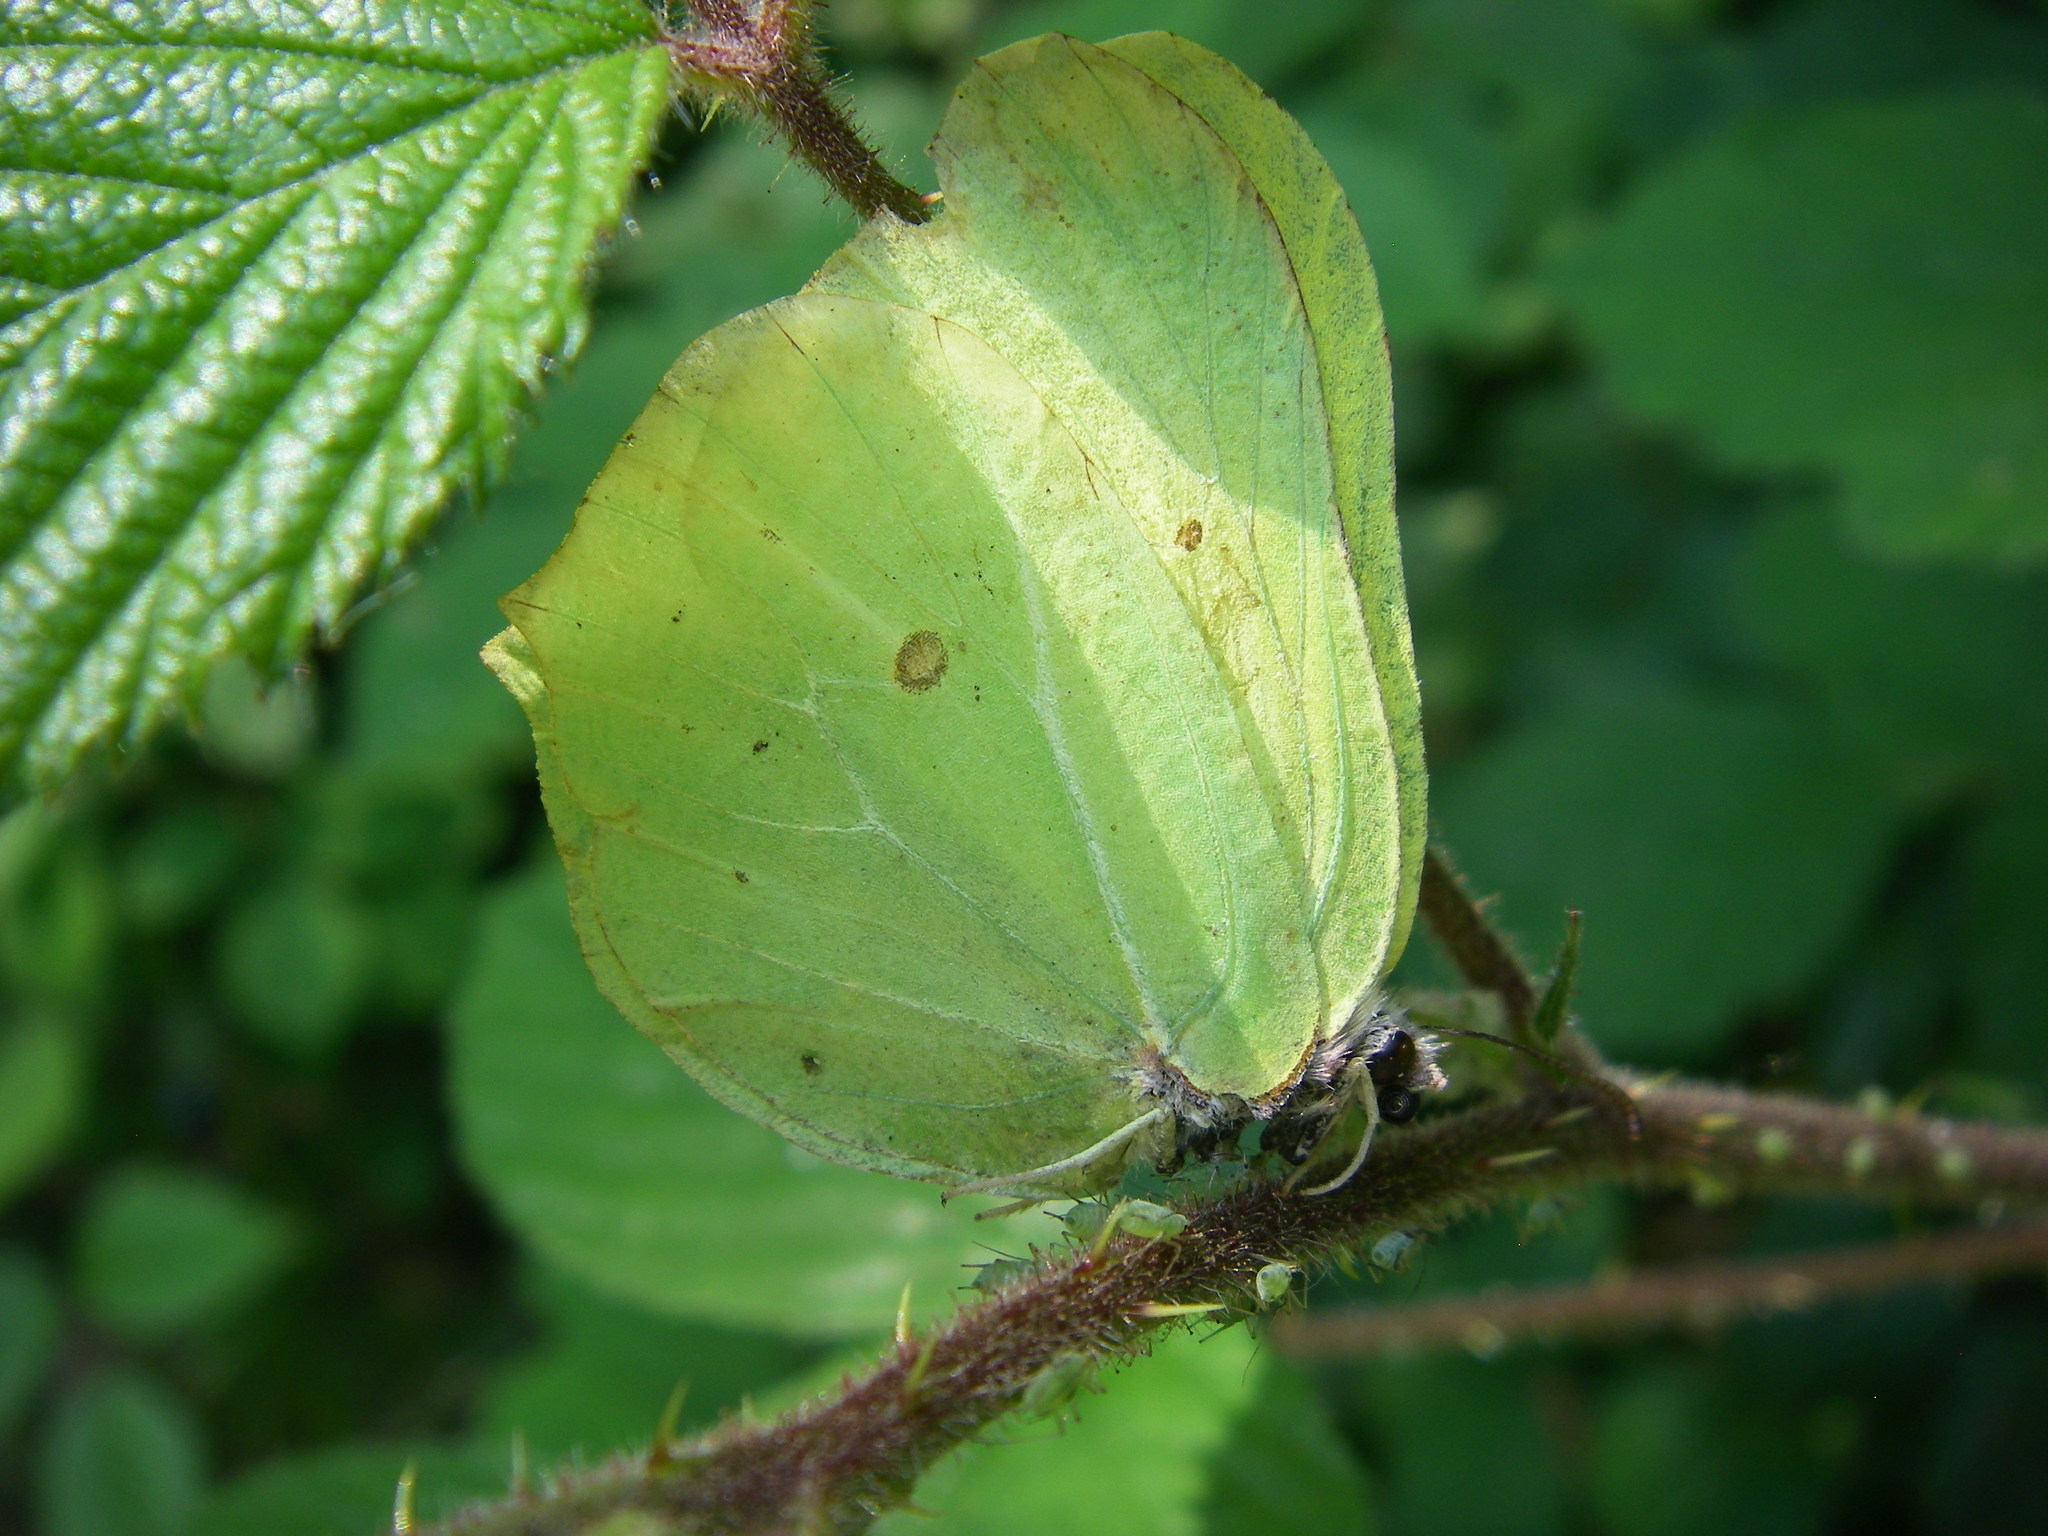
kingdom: Animalia
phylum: Arthropoda
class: Insecta
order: Lepidoptera
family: Pieridae
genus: Gonepteryx
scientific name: Gonepteryx rhamni
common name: Brimstone
